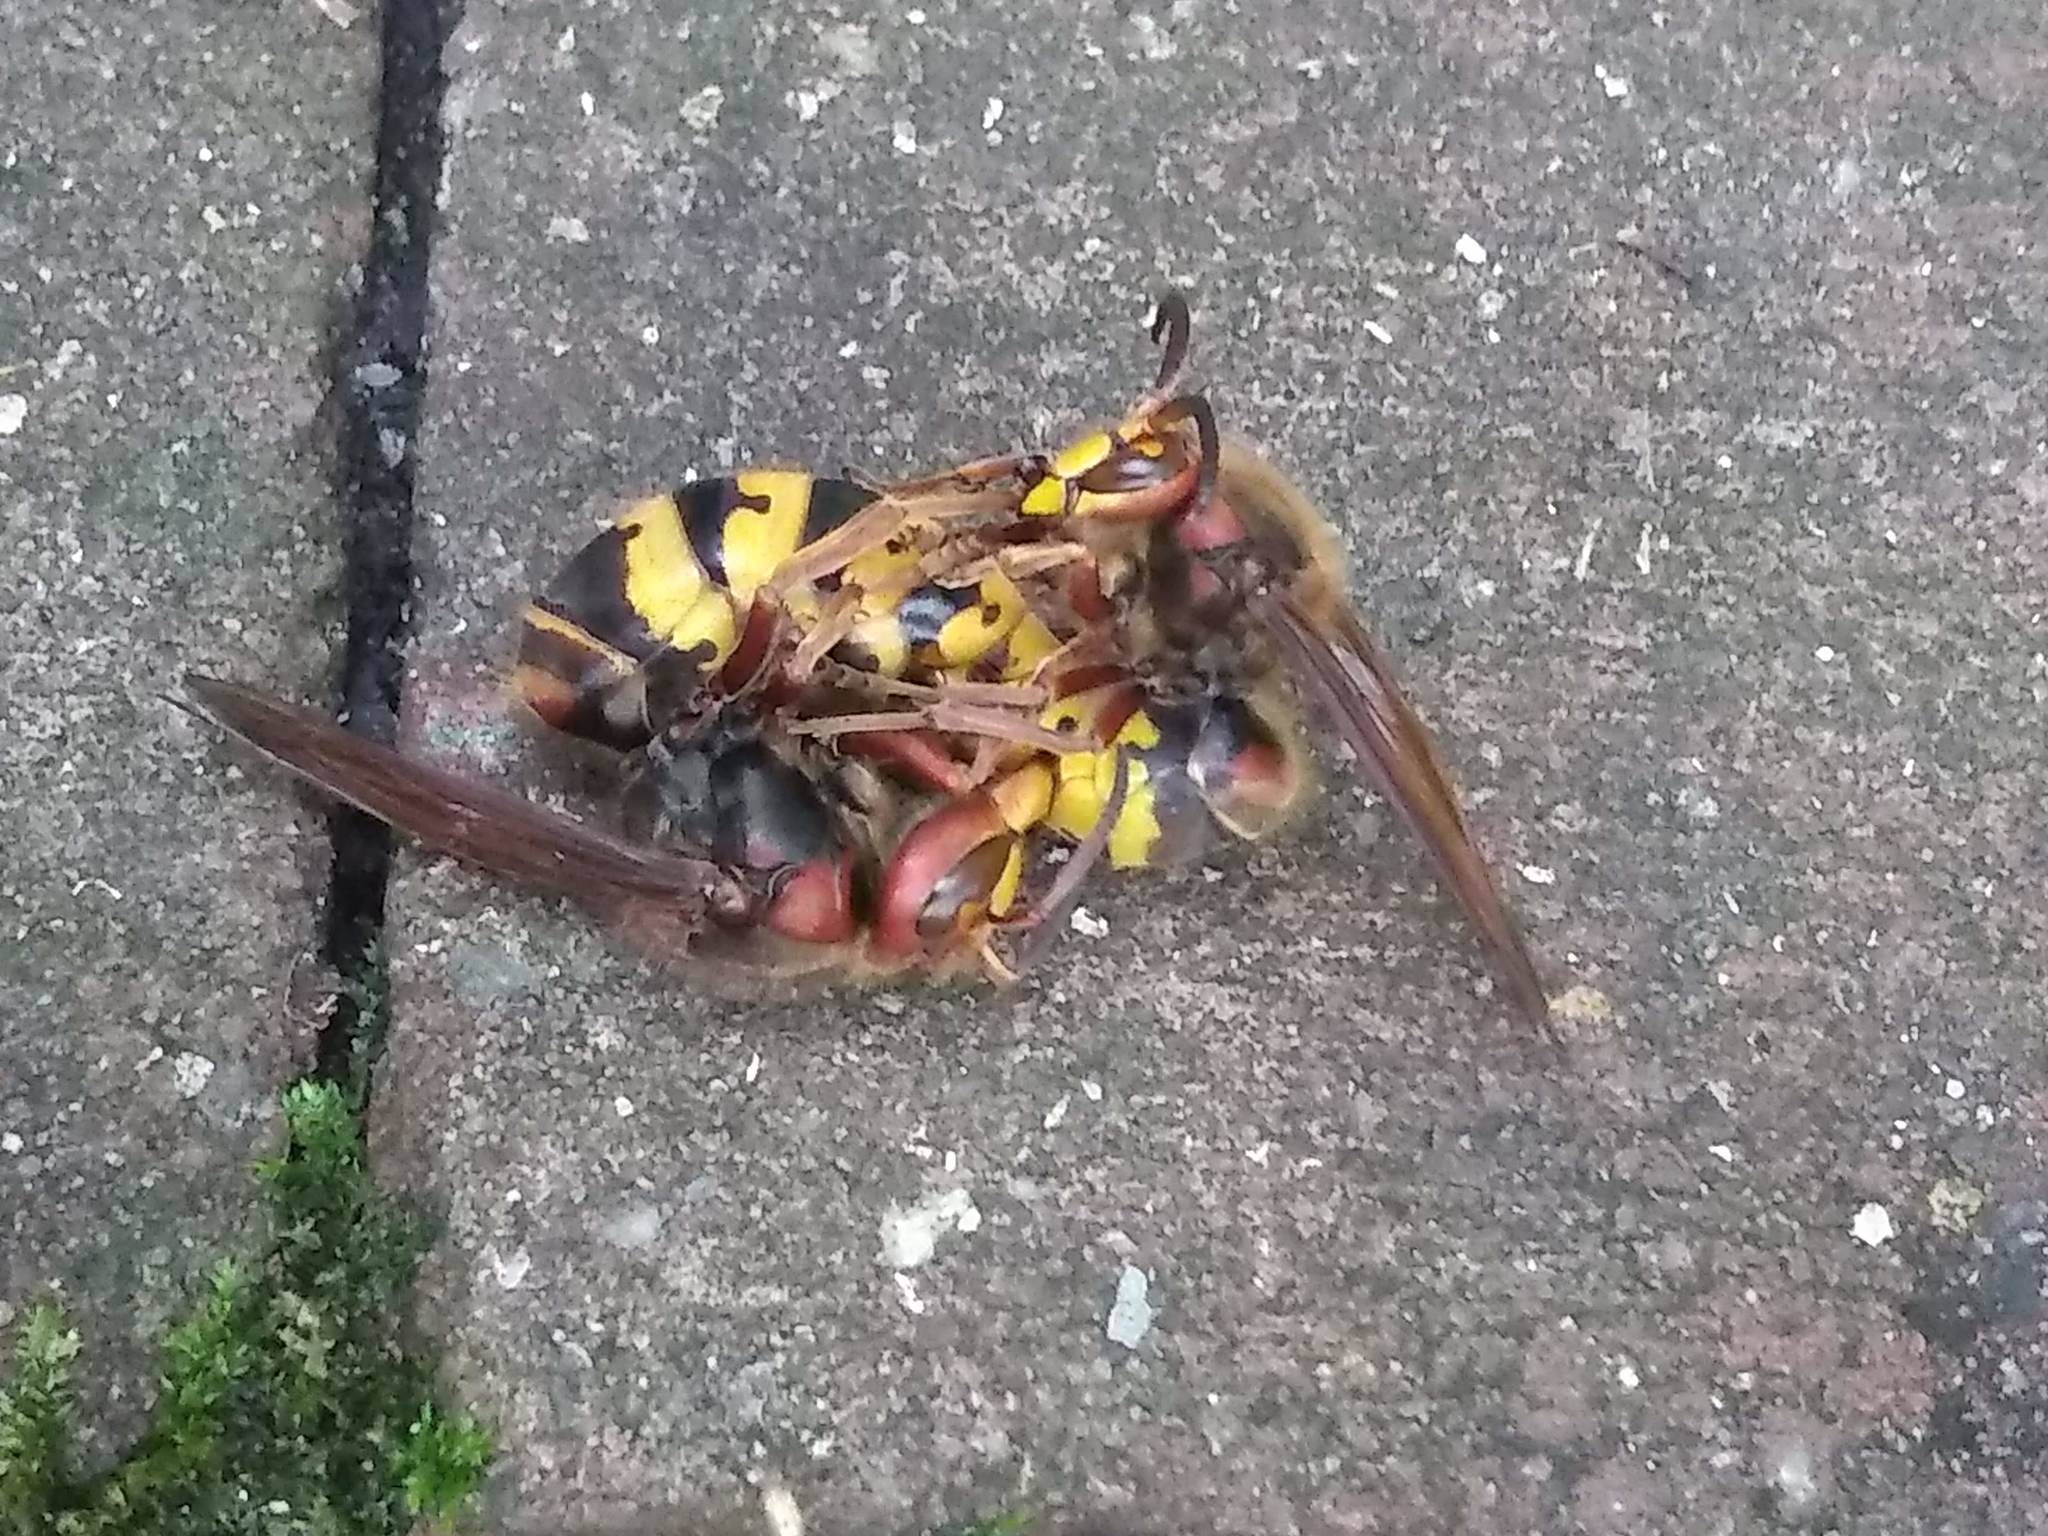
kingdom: Animalia
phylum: Arthropoda
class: Insecta
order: Hymenoptera
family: Vespidae
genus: Vespa
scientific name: Vespa crabro
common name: Hornet
